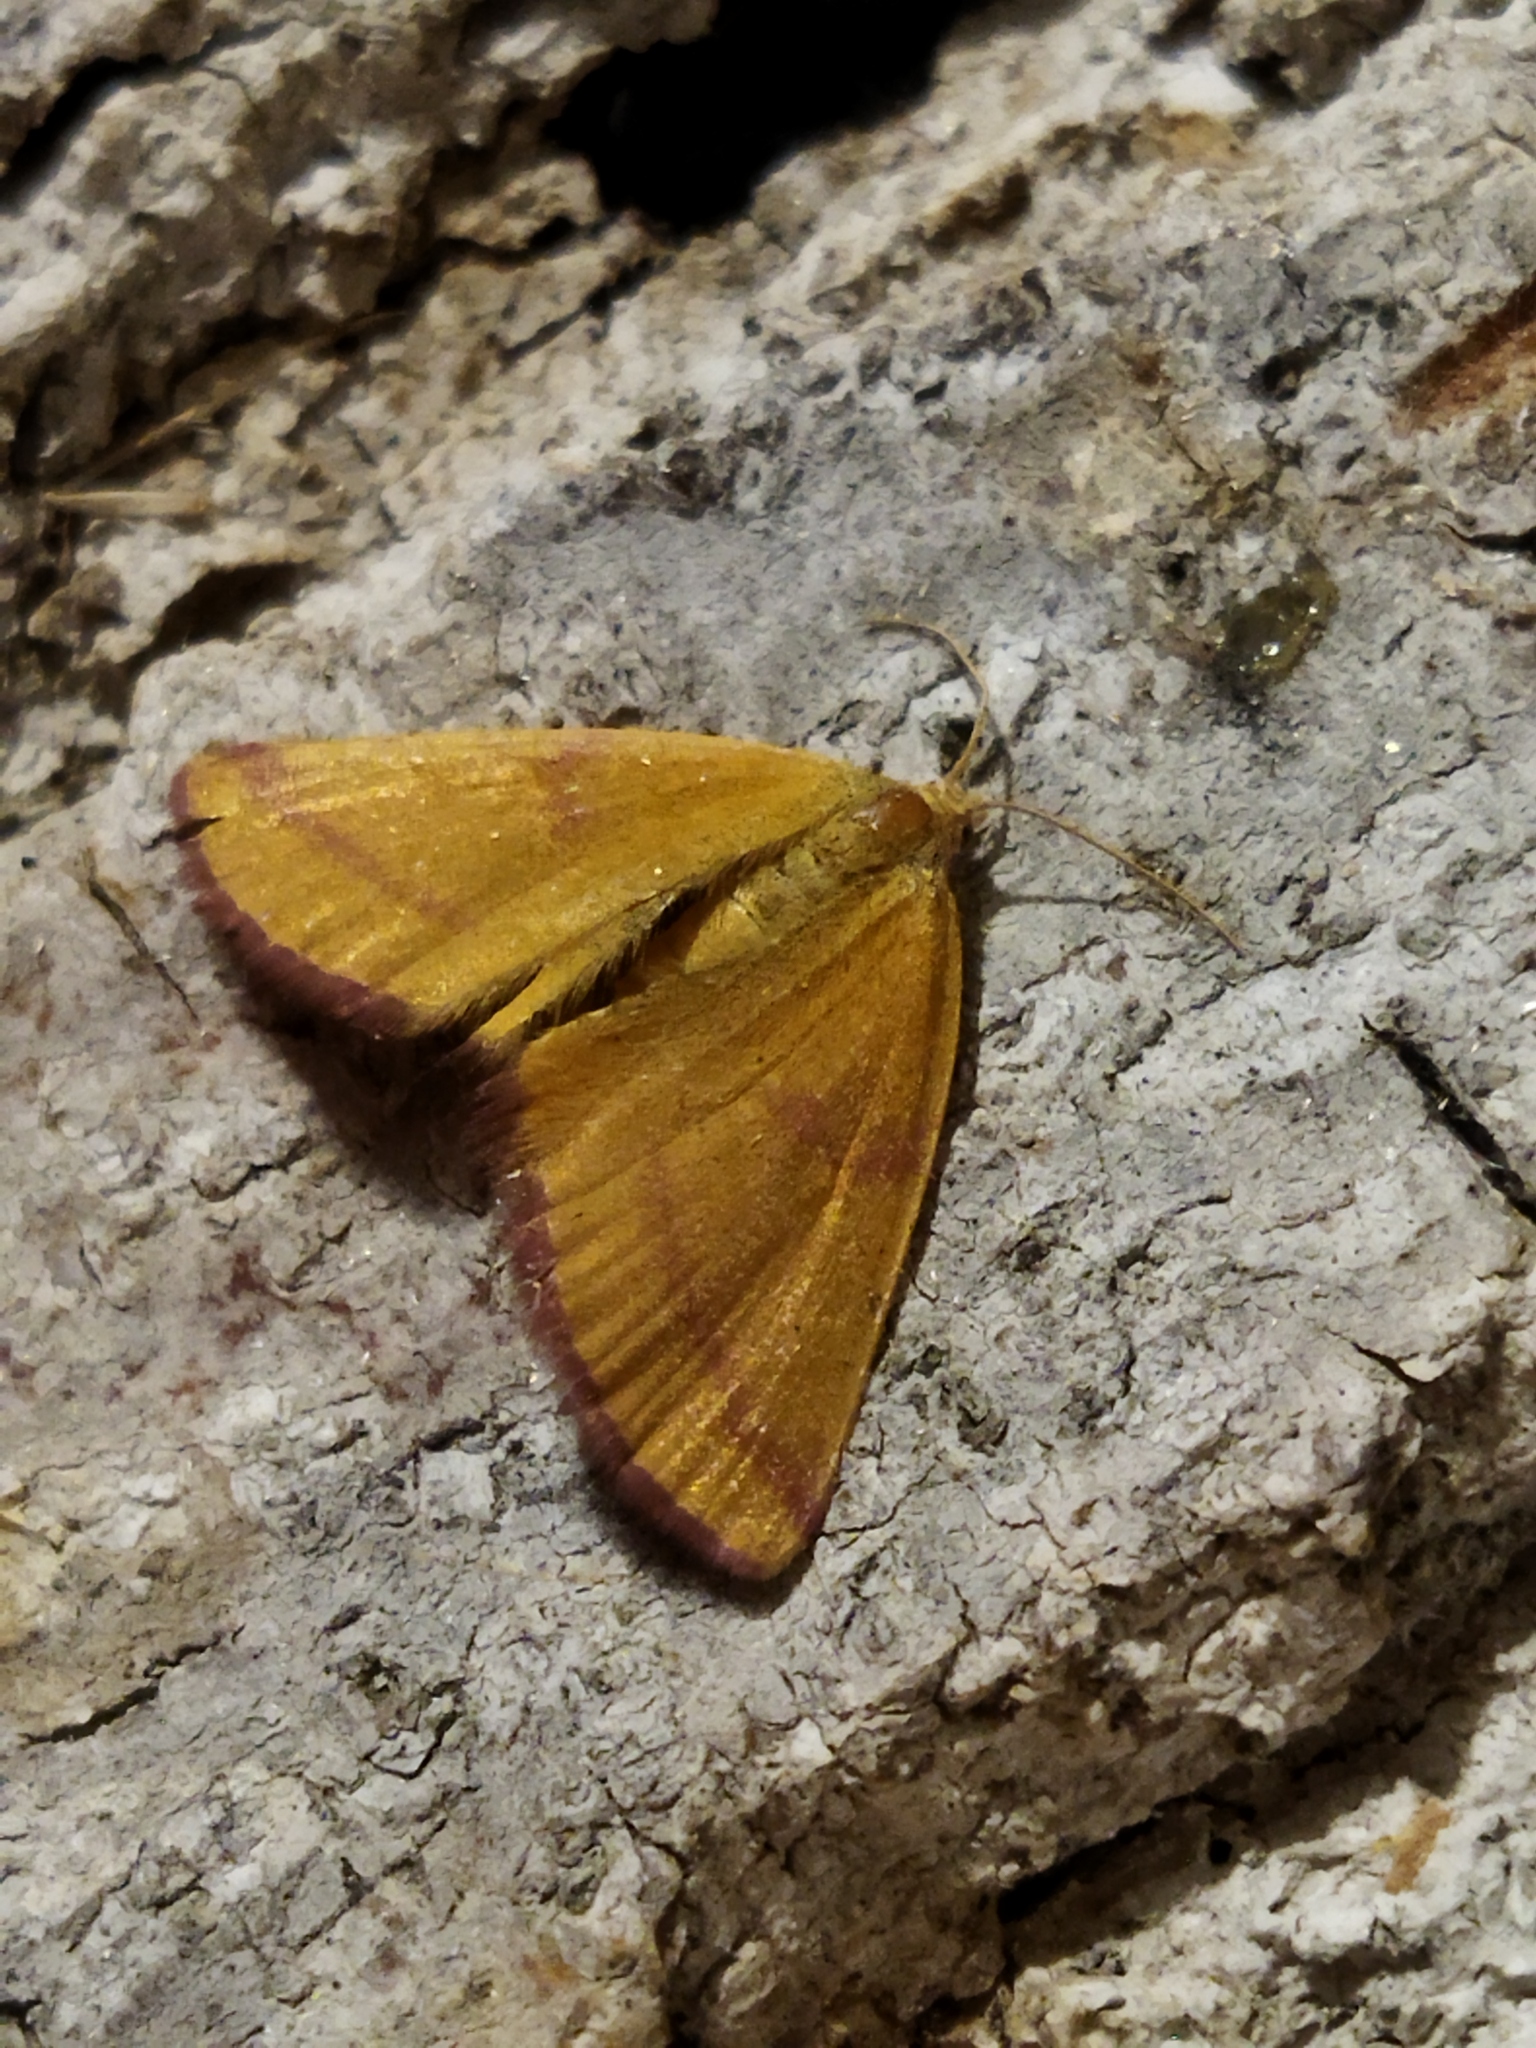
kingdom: Animalia
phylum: Arthropoda
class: Insecta
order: Lepidoptera
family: Geometridae
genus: Lythria
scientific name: Lythria purpuraria
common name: Purple-barred yellow
